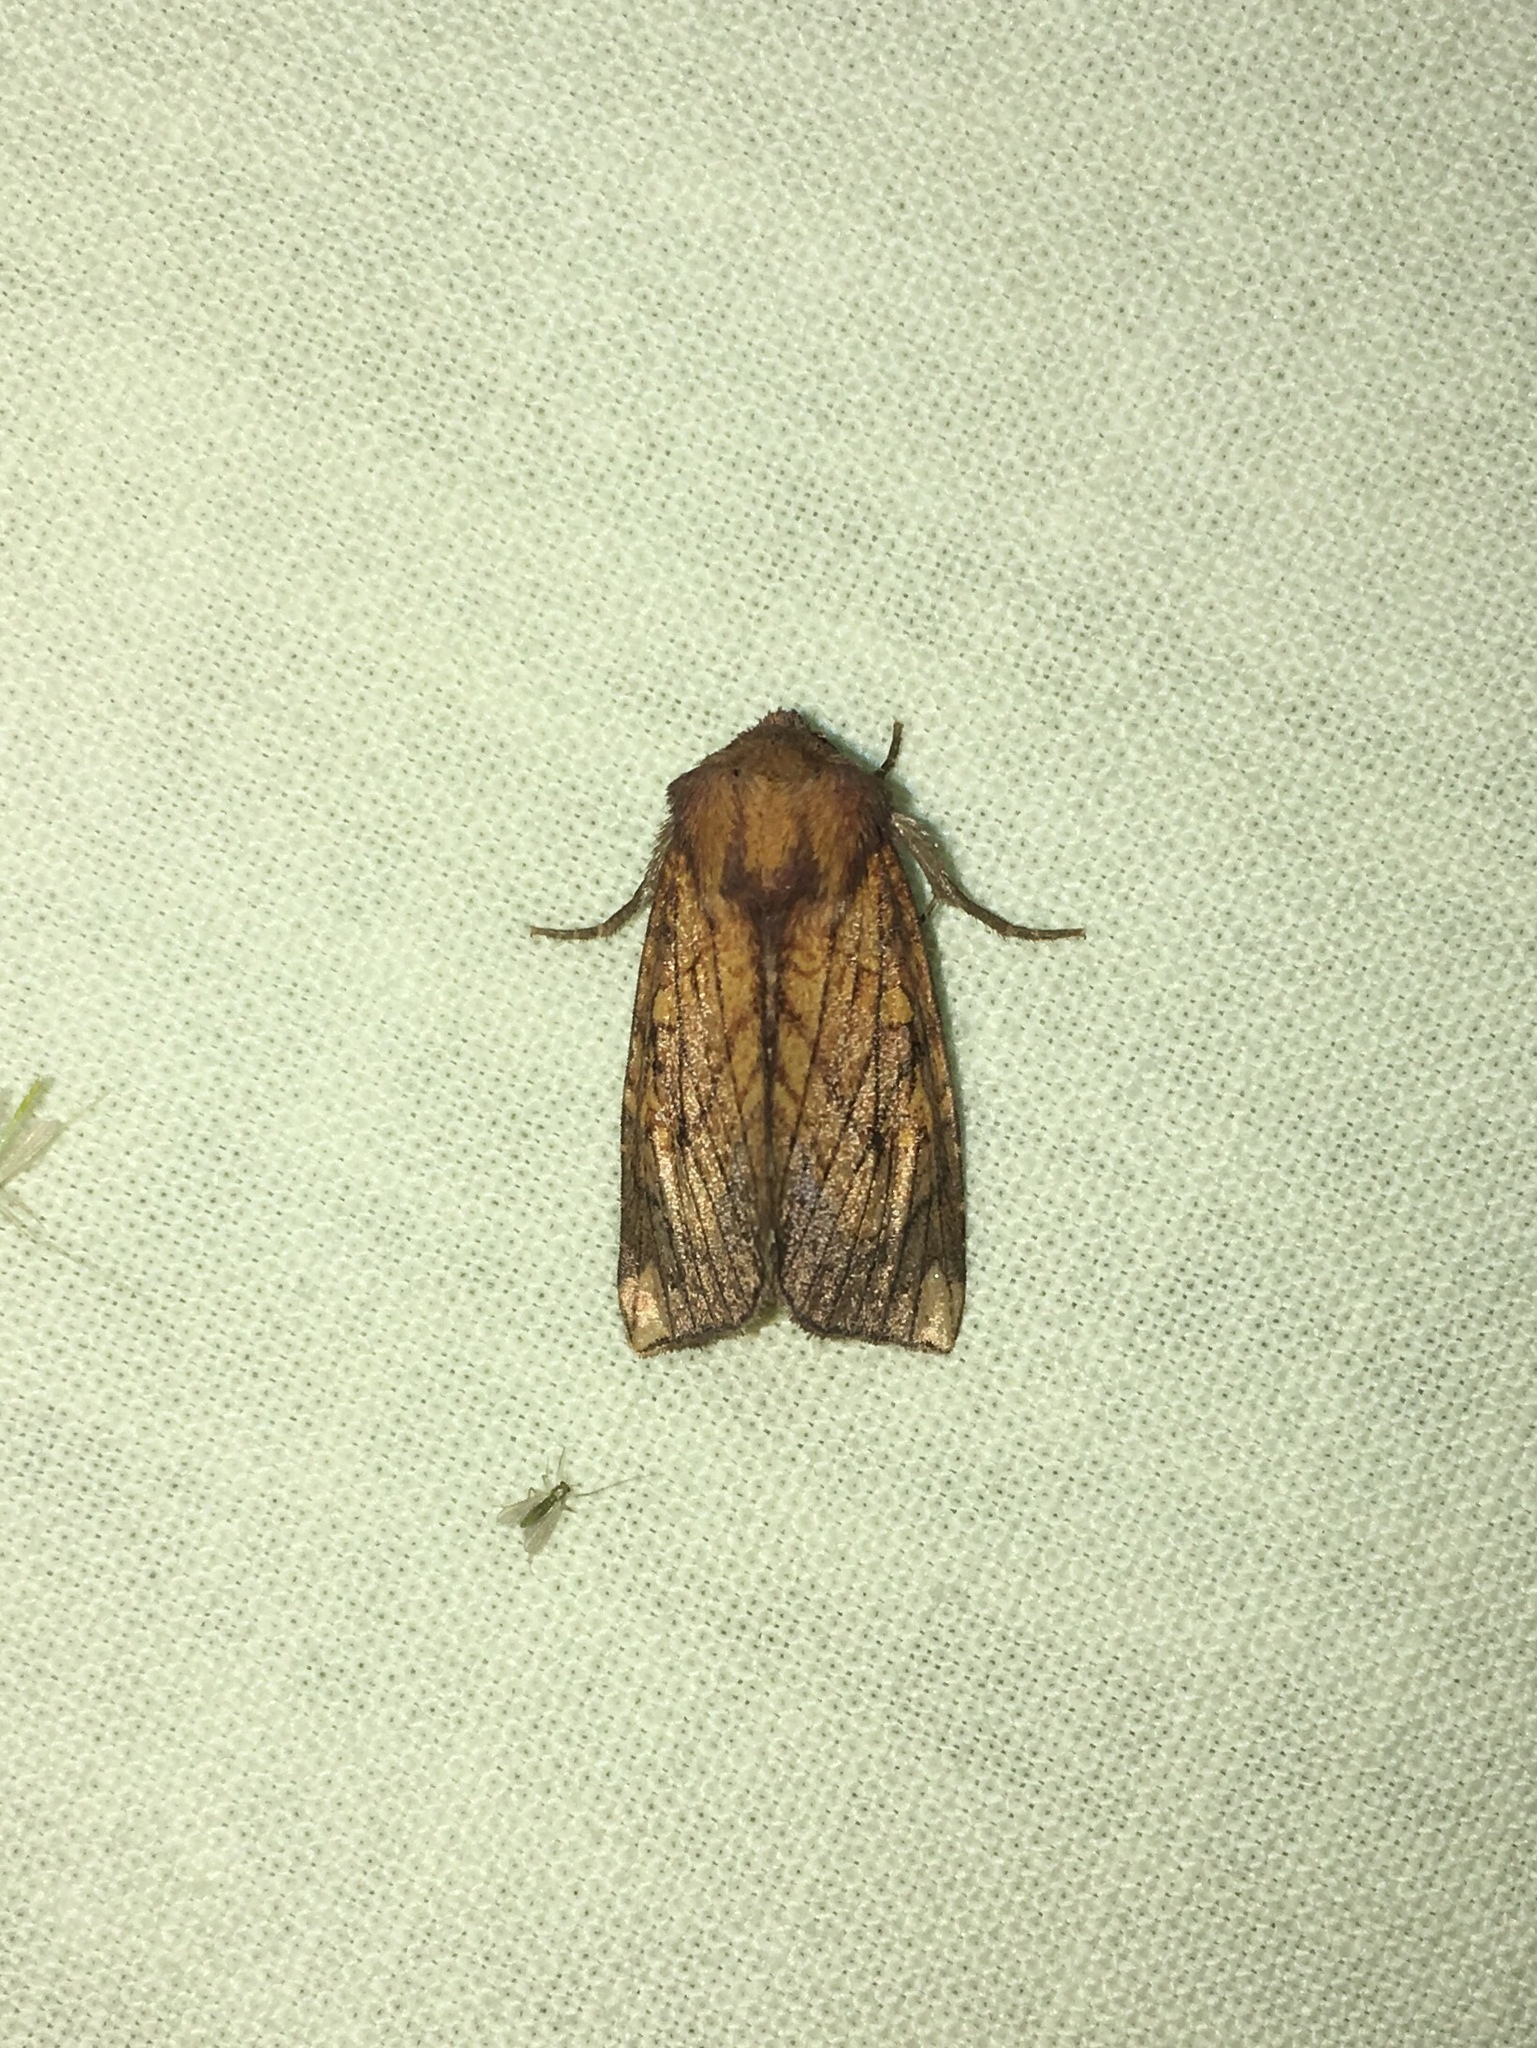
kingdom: Animalia
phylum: Arthropoda
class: Insecta
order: Lepidoptera
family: Noctuidae
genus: Papaipema
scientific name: Papaipema inquaesita
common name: Sensitive fern borer moth
